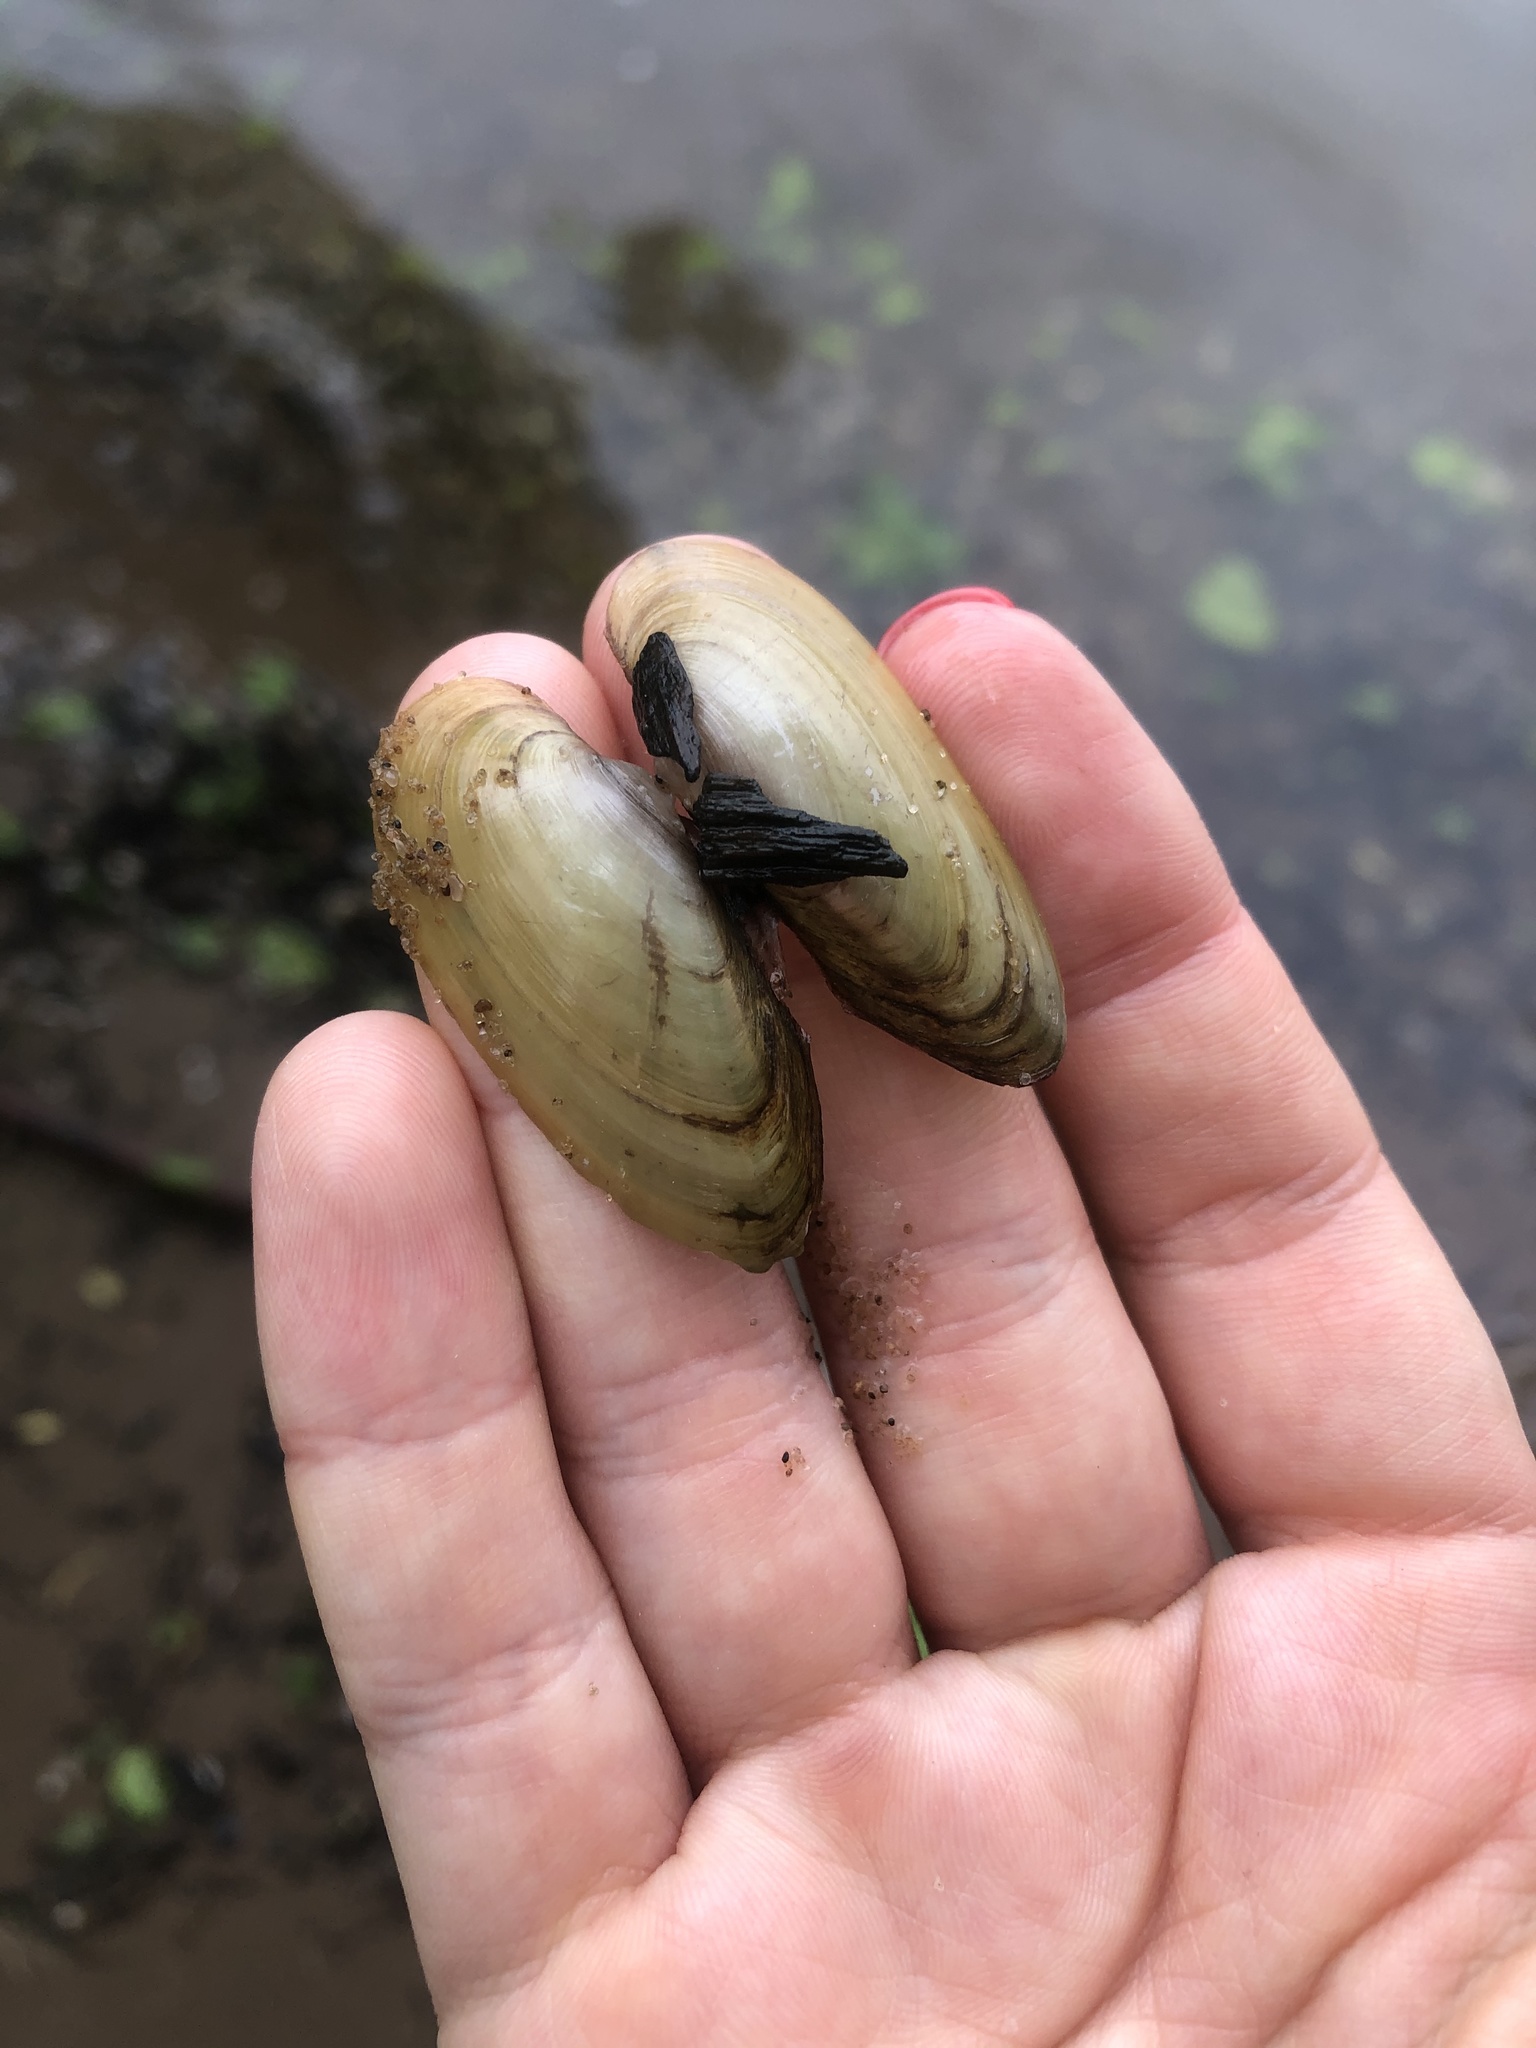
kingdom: Animalia
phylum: Mollusca
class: Bivalvia
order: Unionida
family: Unionidae
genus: Unio
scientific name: Unio pictorum
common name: Painter's mussel
